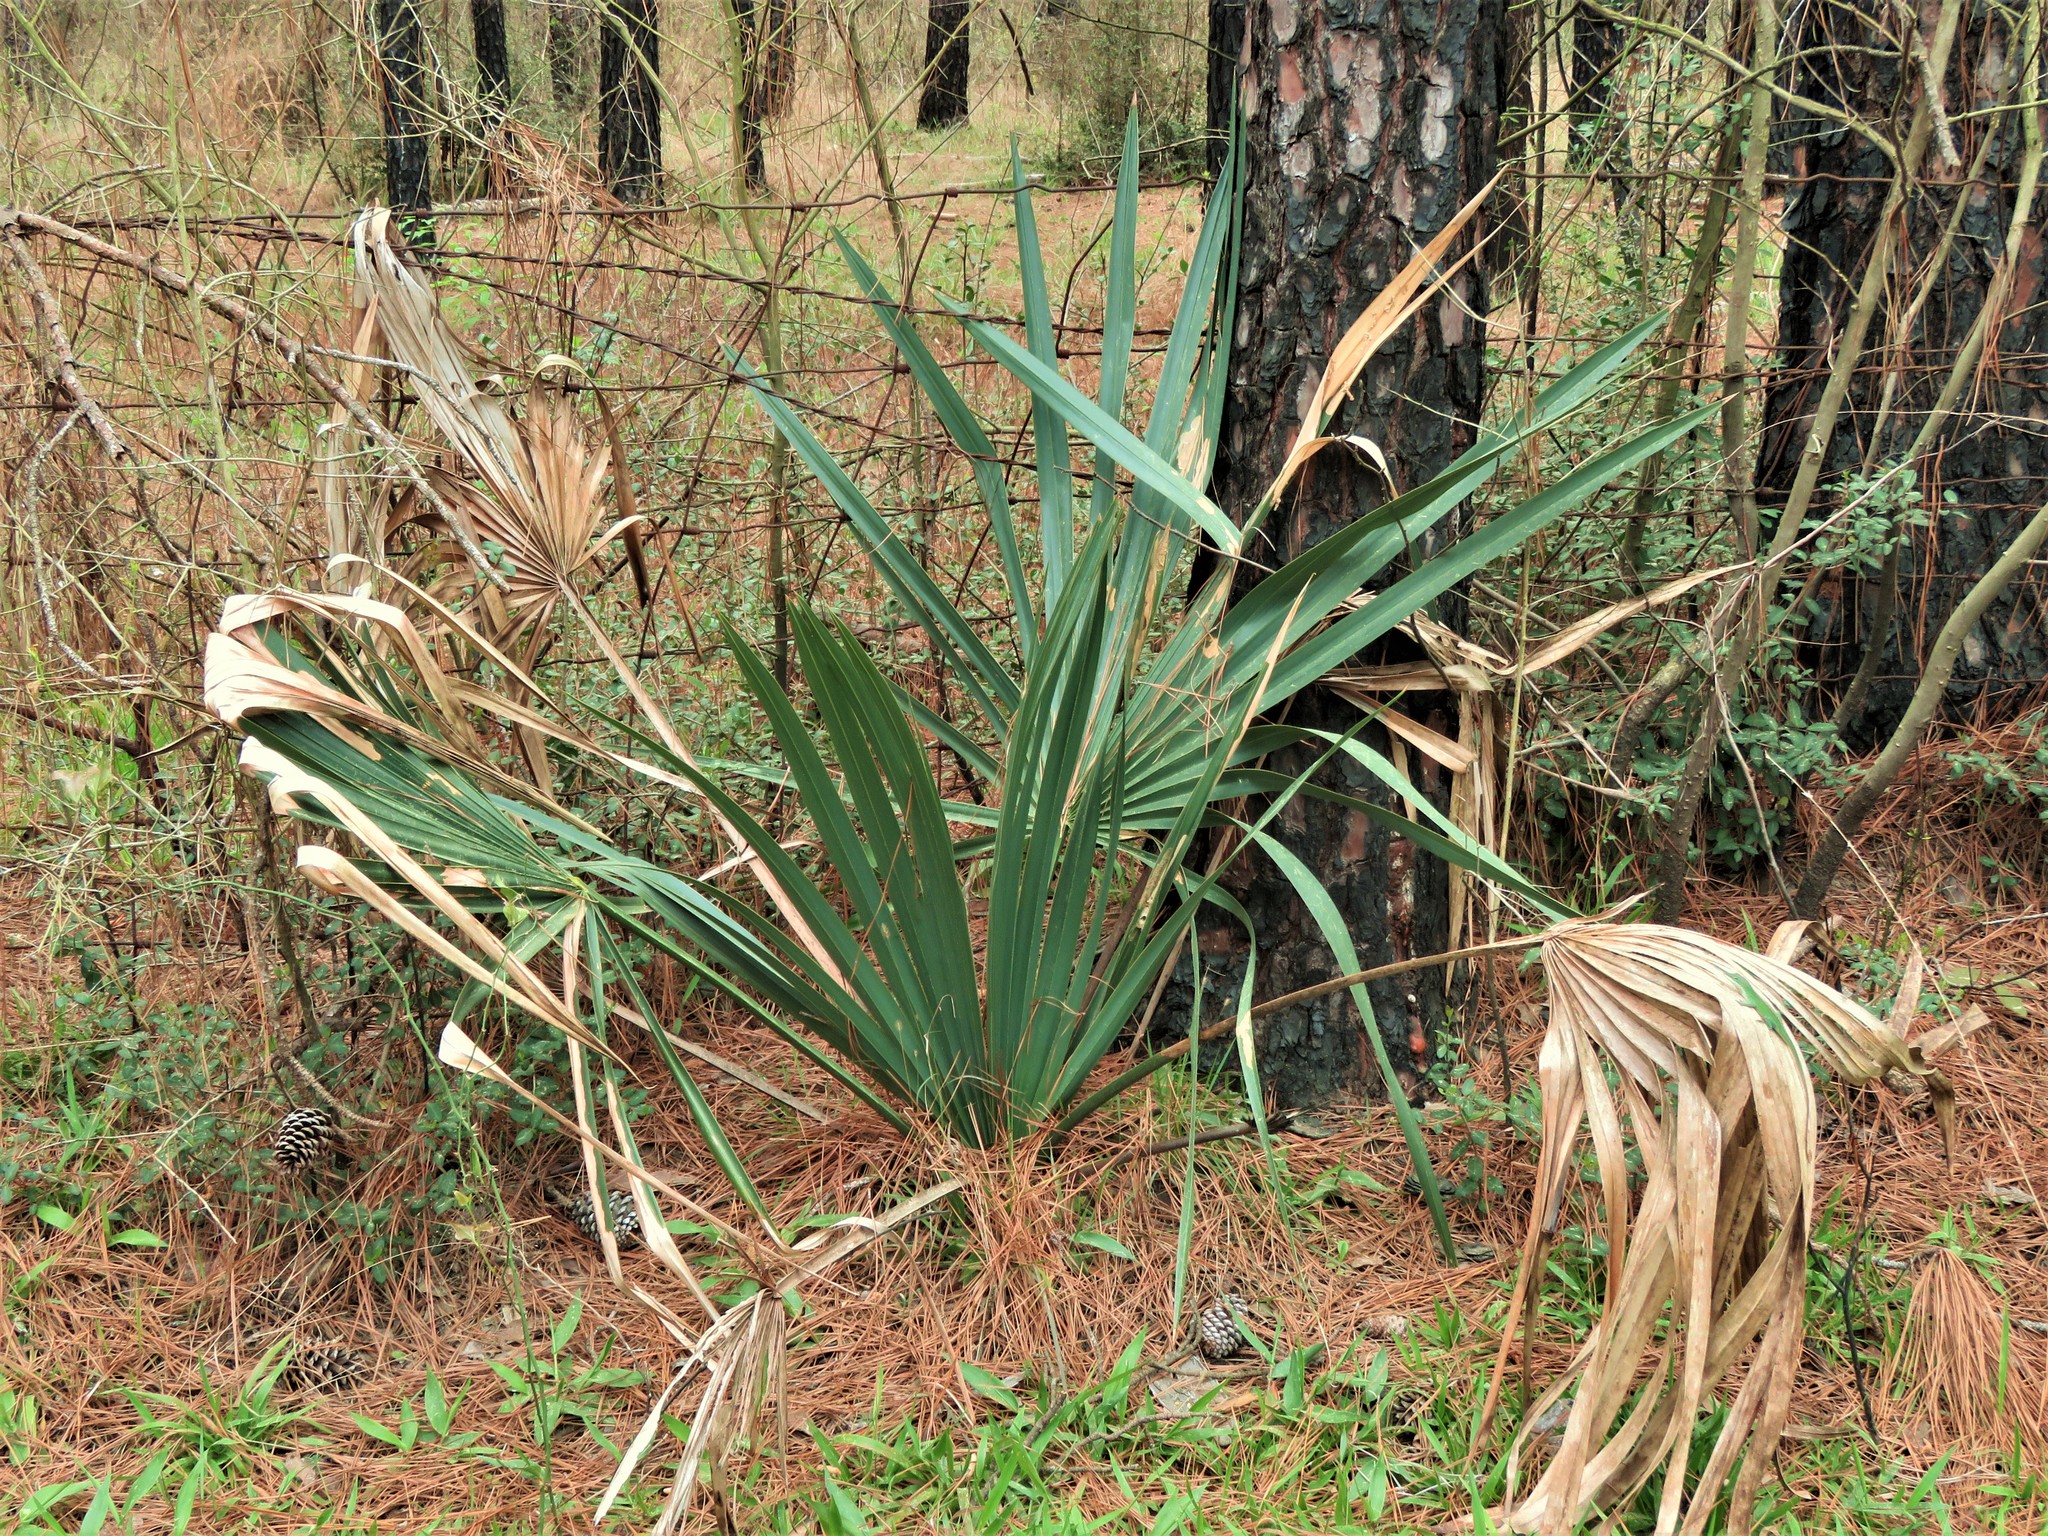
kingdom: Plantae
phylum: Tracheophyta
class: Liliopsida
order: Arecales
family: Arecaceae
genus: Sabal
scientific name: Sabal minor
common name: Dwarf palmetto
